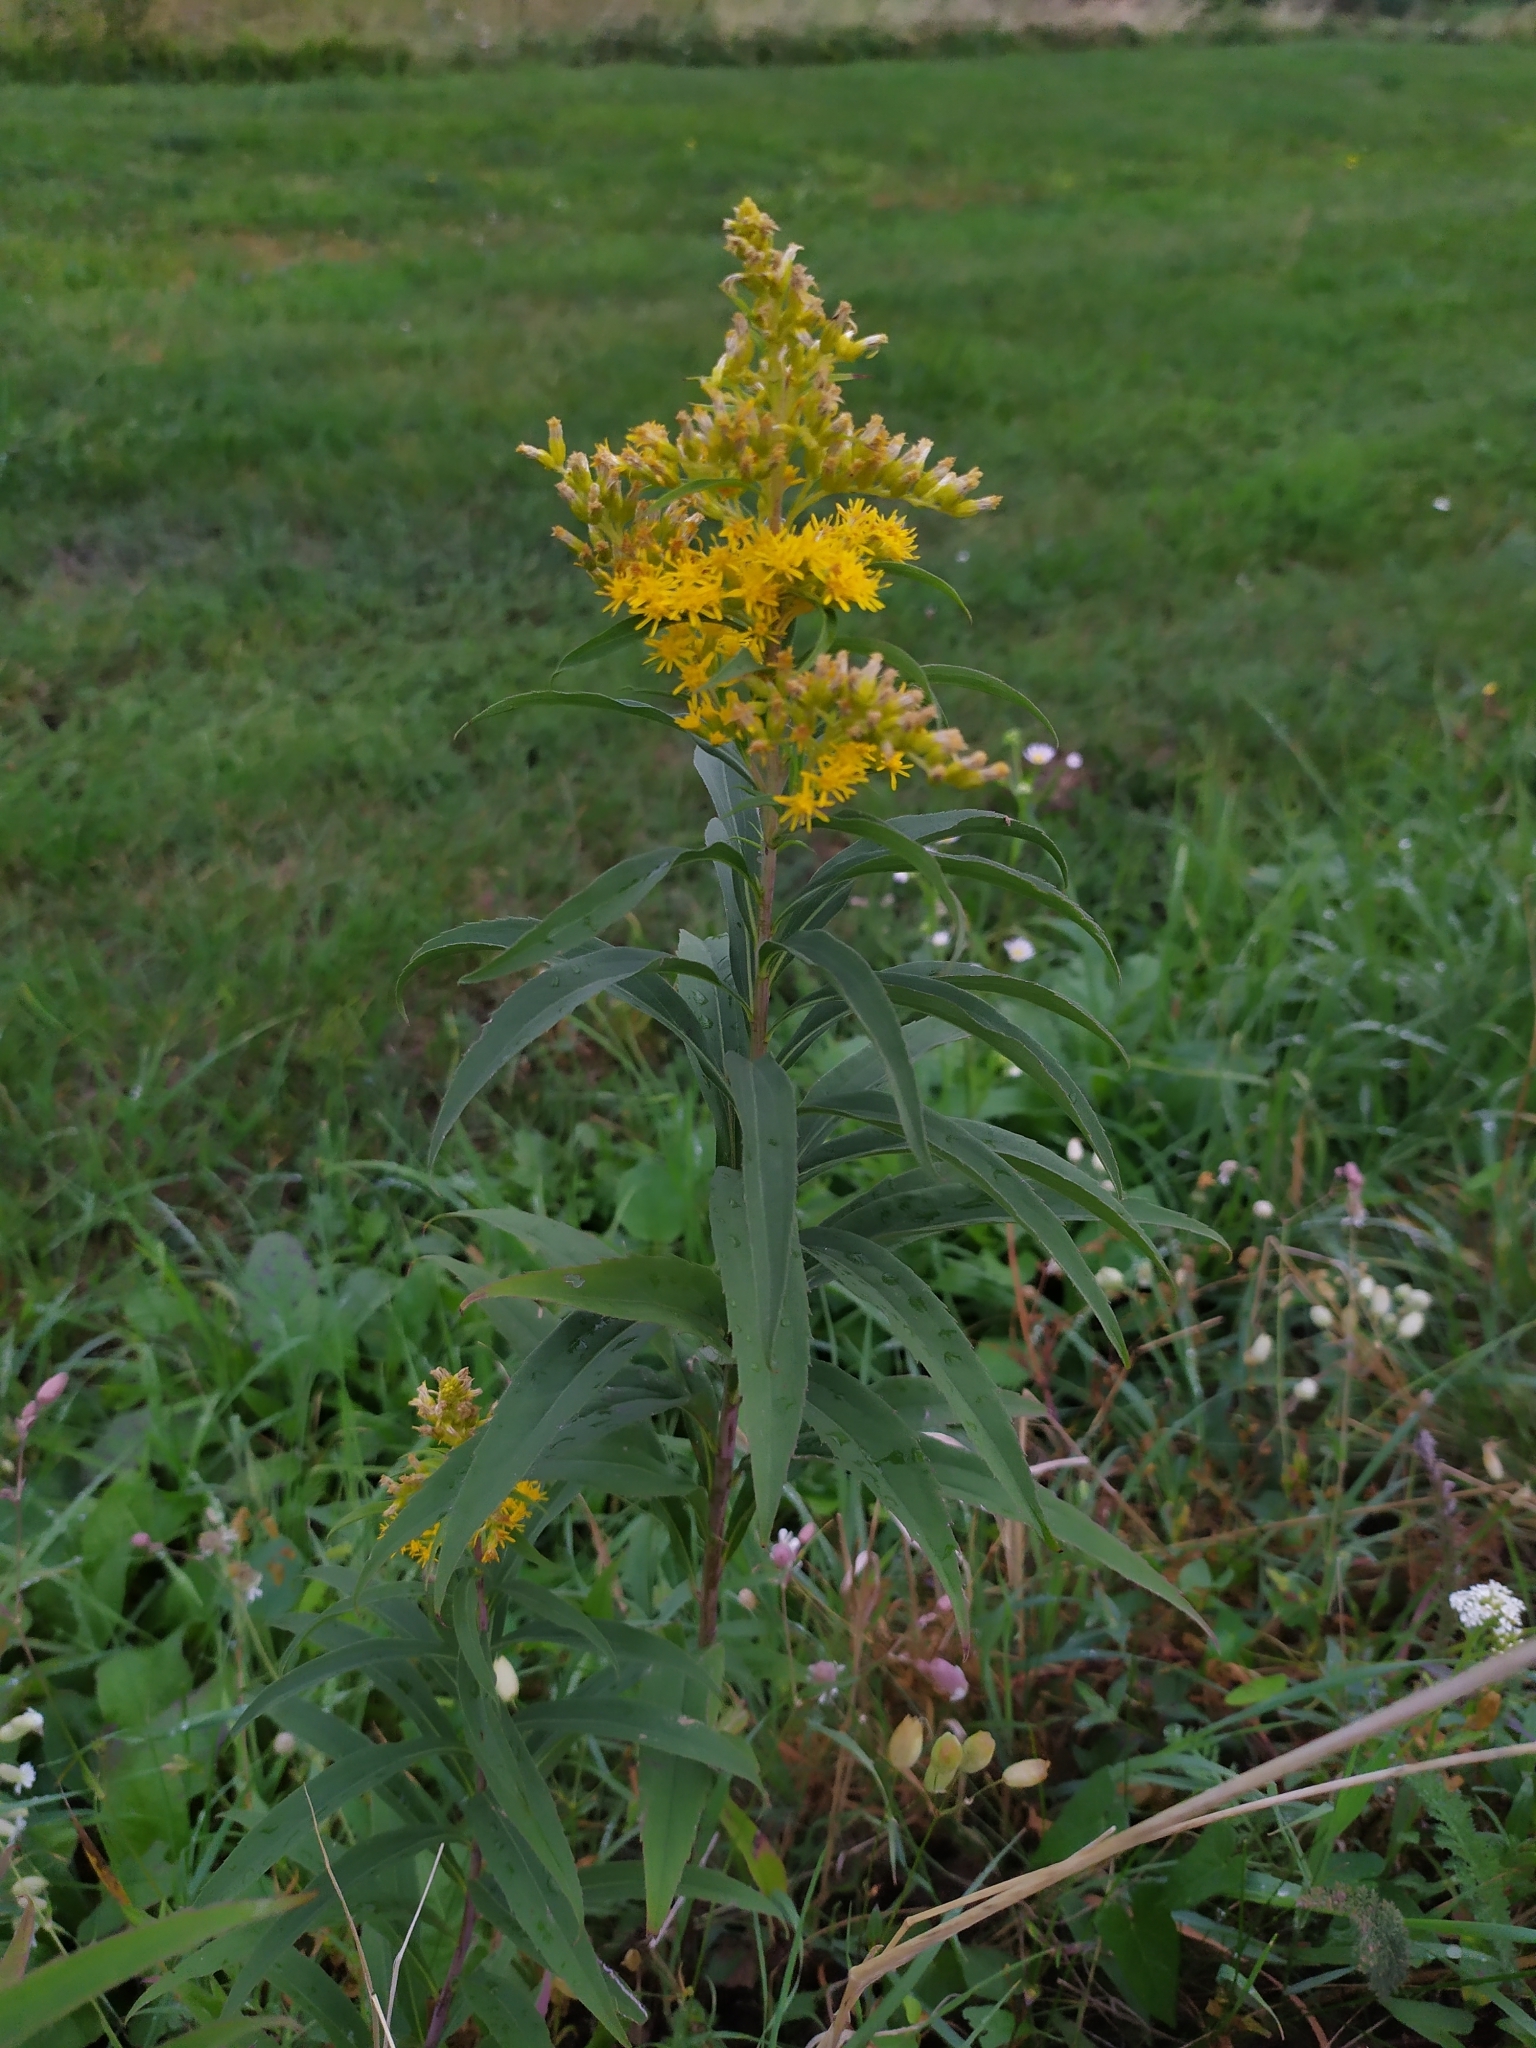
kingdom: Plantae
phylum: Tracheophyta
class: Magnoliopsida
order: Asterales
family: Asteraceae
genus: Solidago
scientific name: Solidago gigantea
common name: Giant goldenrod
